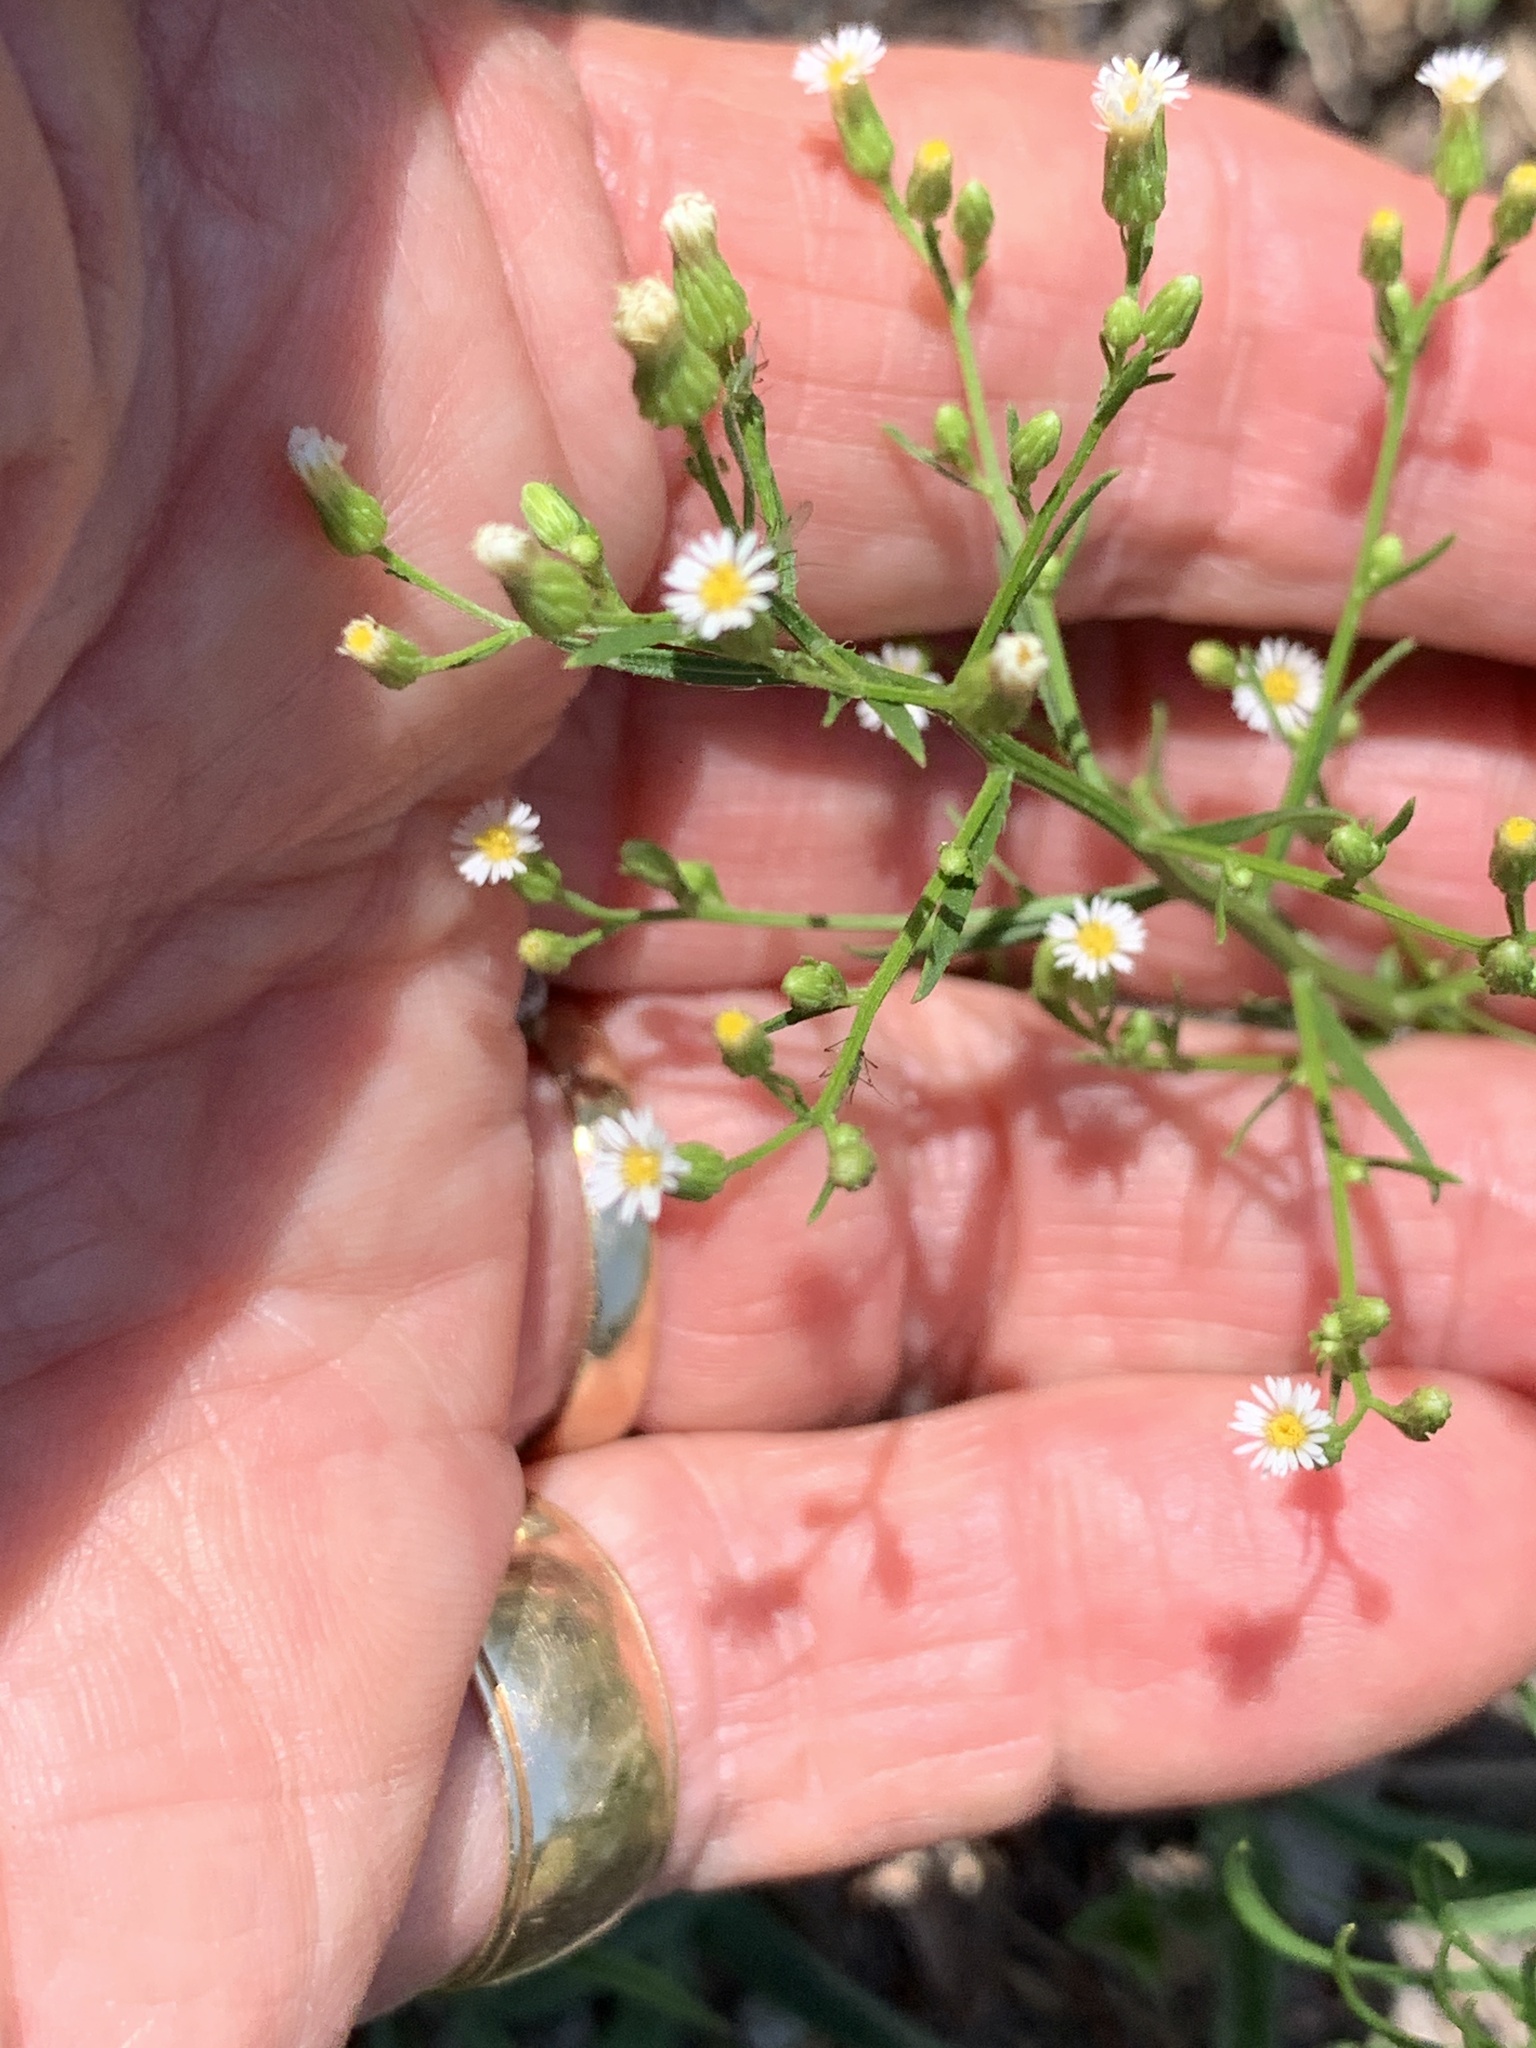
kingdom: Plantae
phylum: Tracheophyta
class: Magnoliopsida
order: Asterales
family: Asteraceae
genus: Erigeron
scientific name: Erigeron canadensis
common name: Canadian fleabane
